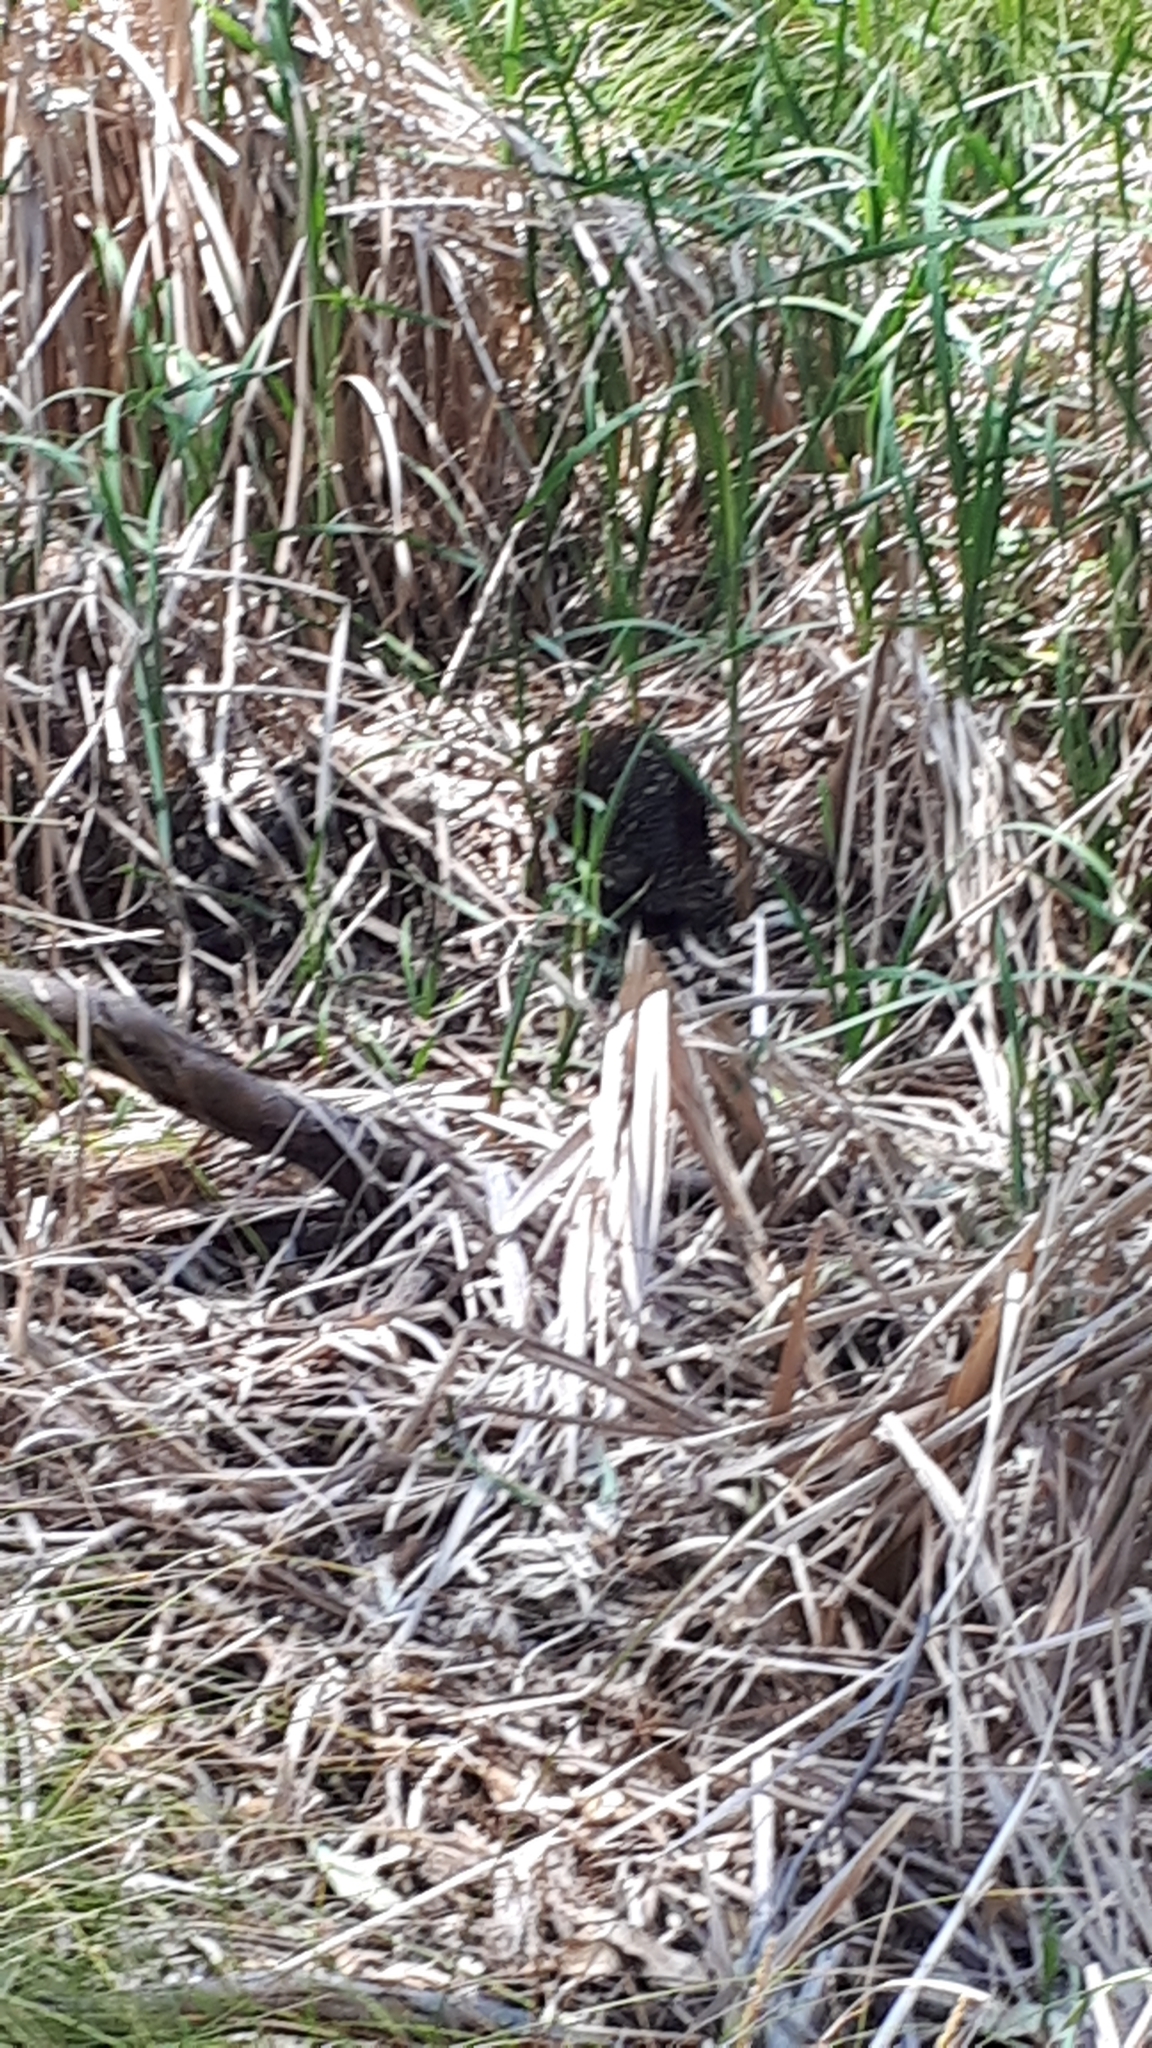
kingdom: Animalia
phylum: Chordata
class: Mammalia
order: Monotremata
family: Tachyglossidae
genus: Tachyglossus
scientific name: Tachyglossus aculeatus
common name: Short-beaked echidna
